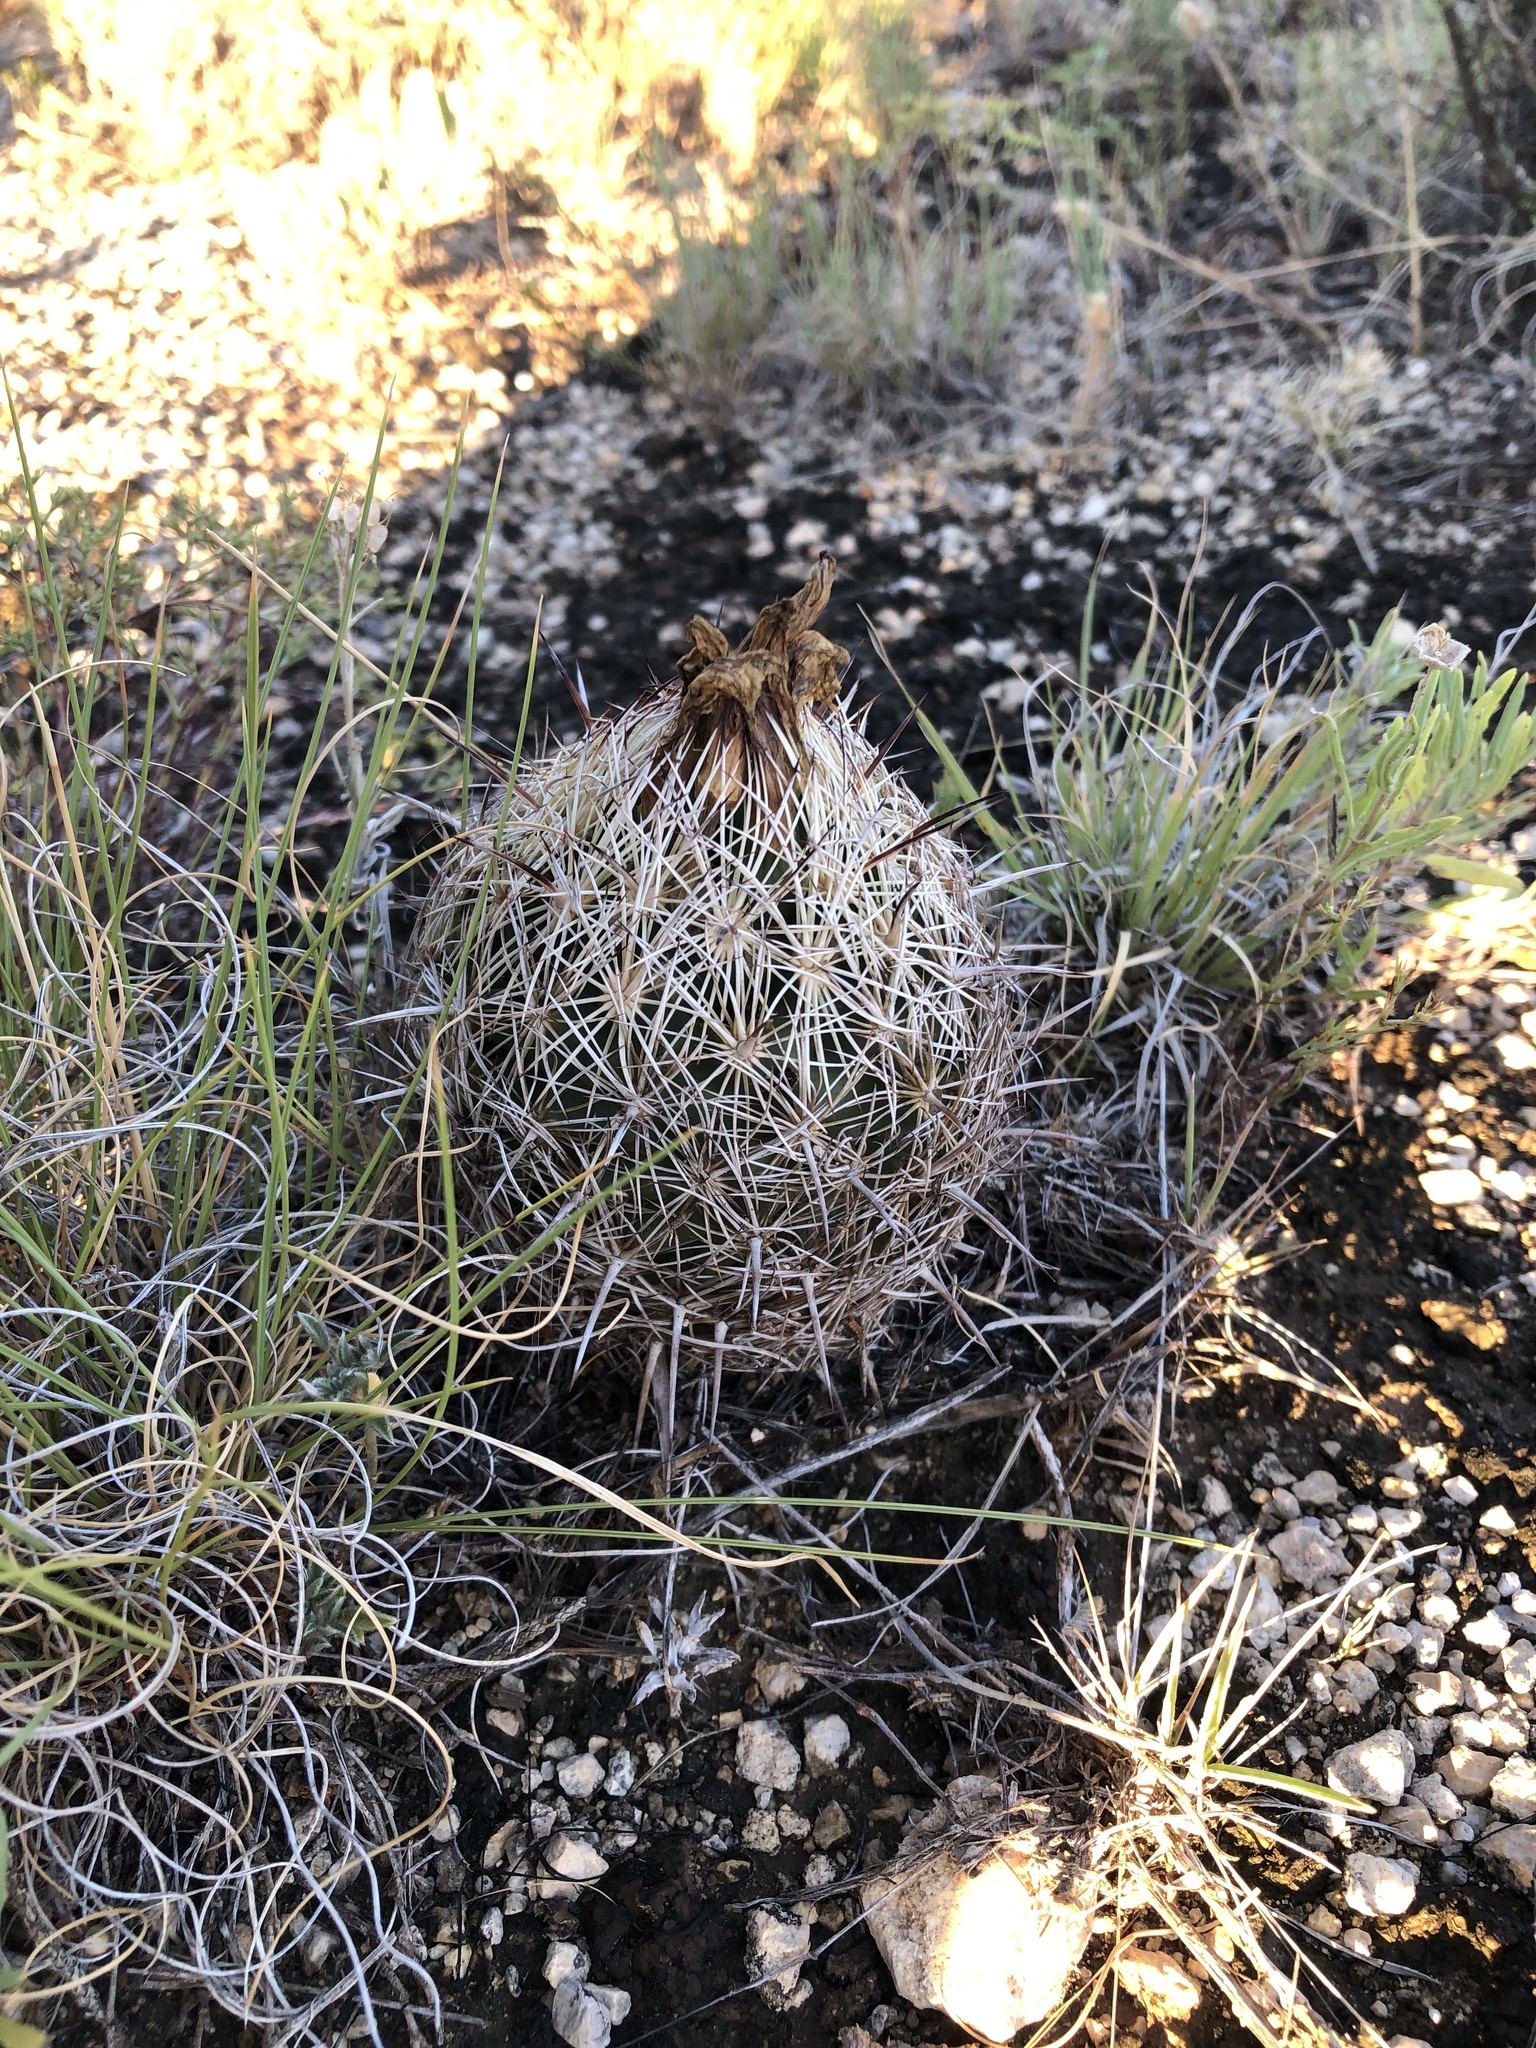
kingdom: Plantae
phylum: Tracheophyta
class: Magnoliopsida
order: Caryophyllales
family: Cactaceae
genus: Coryphantha
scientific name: Coryphantha echinus
